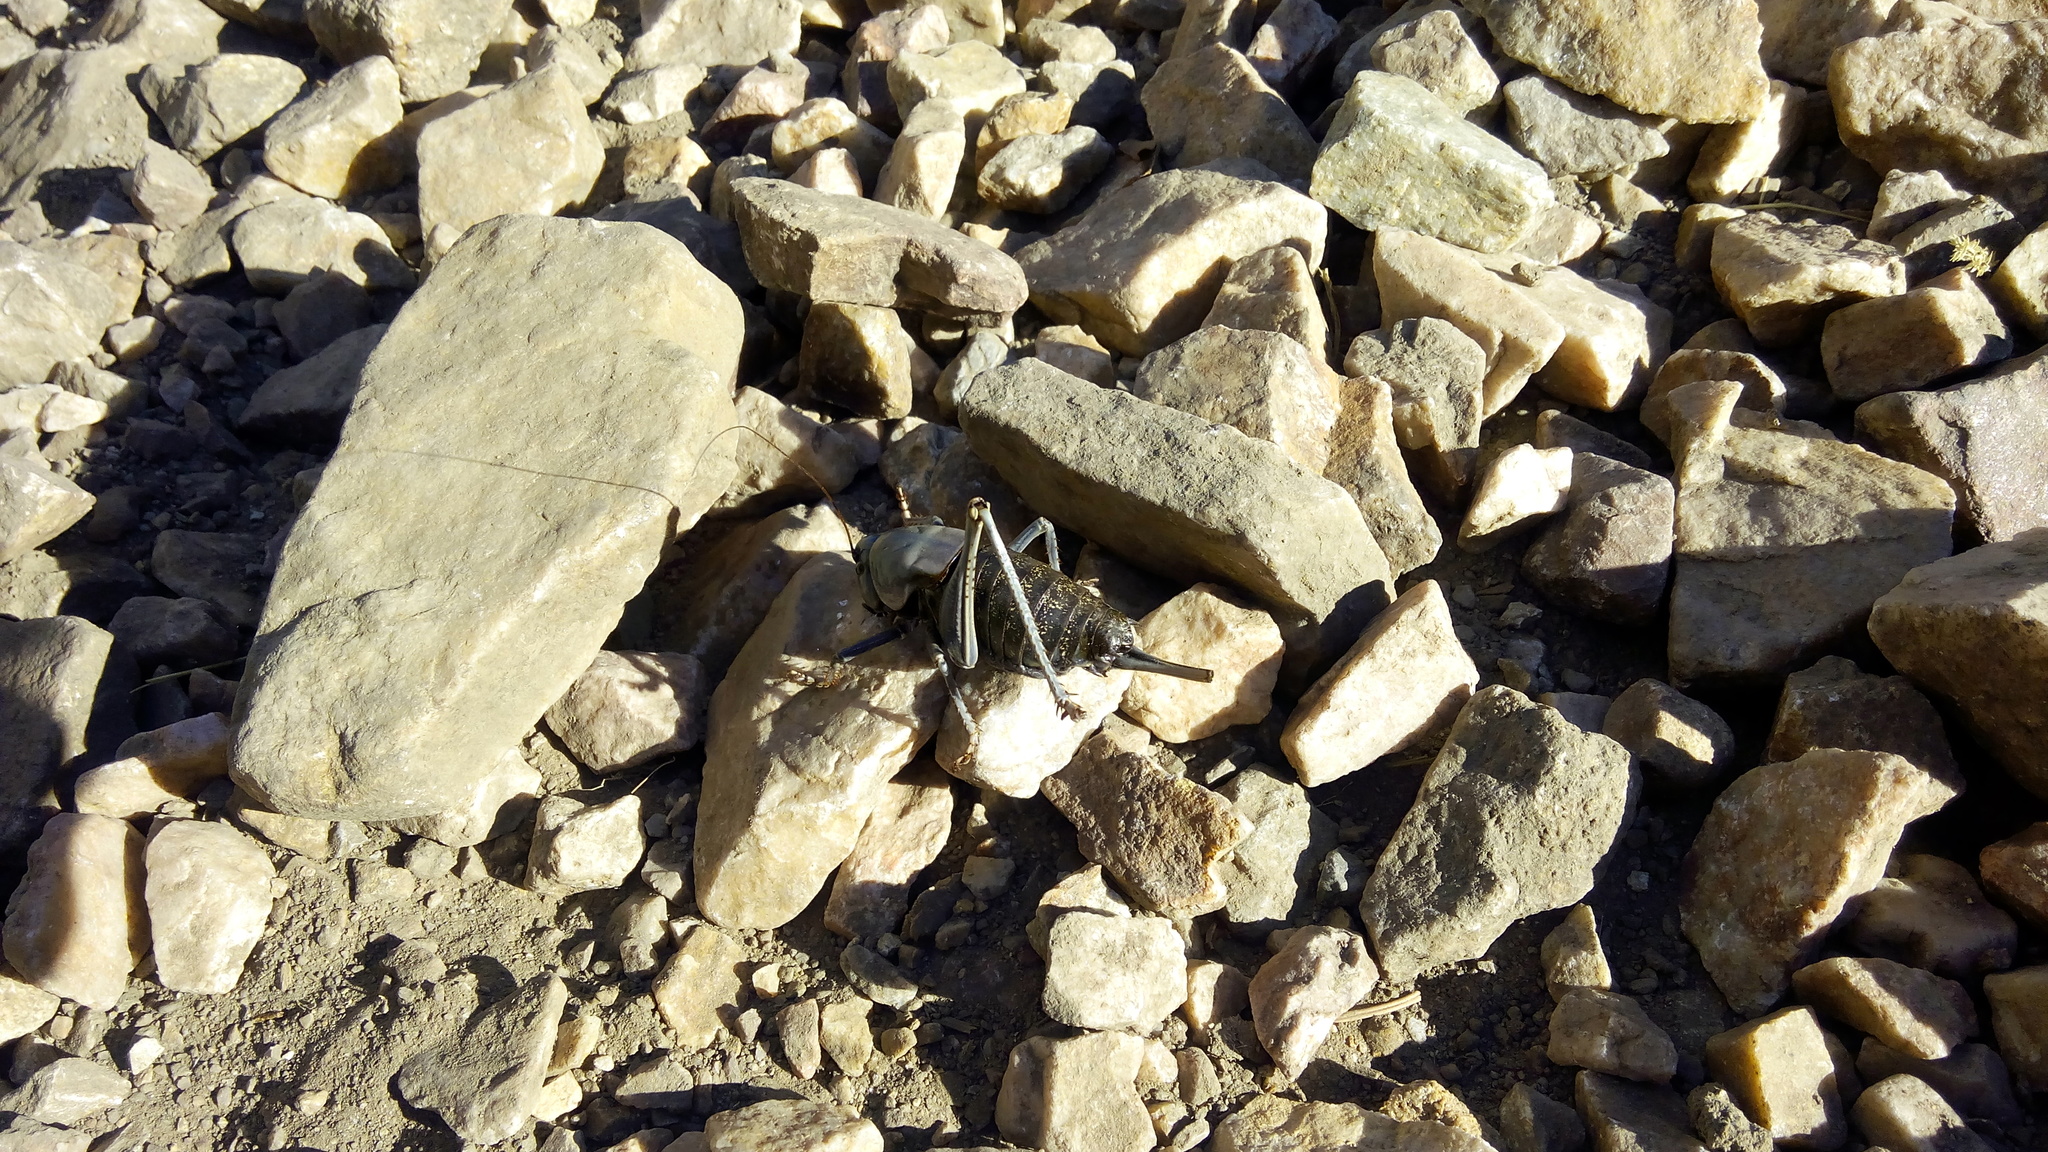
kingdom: Animalia
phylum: Arthropoda
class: Insecta
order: Orthoptera
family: Tettigoniidae
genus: Anabrus
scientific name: Anabrus simplex
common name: Mormon cricket
